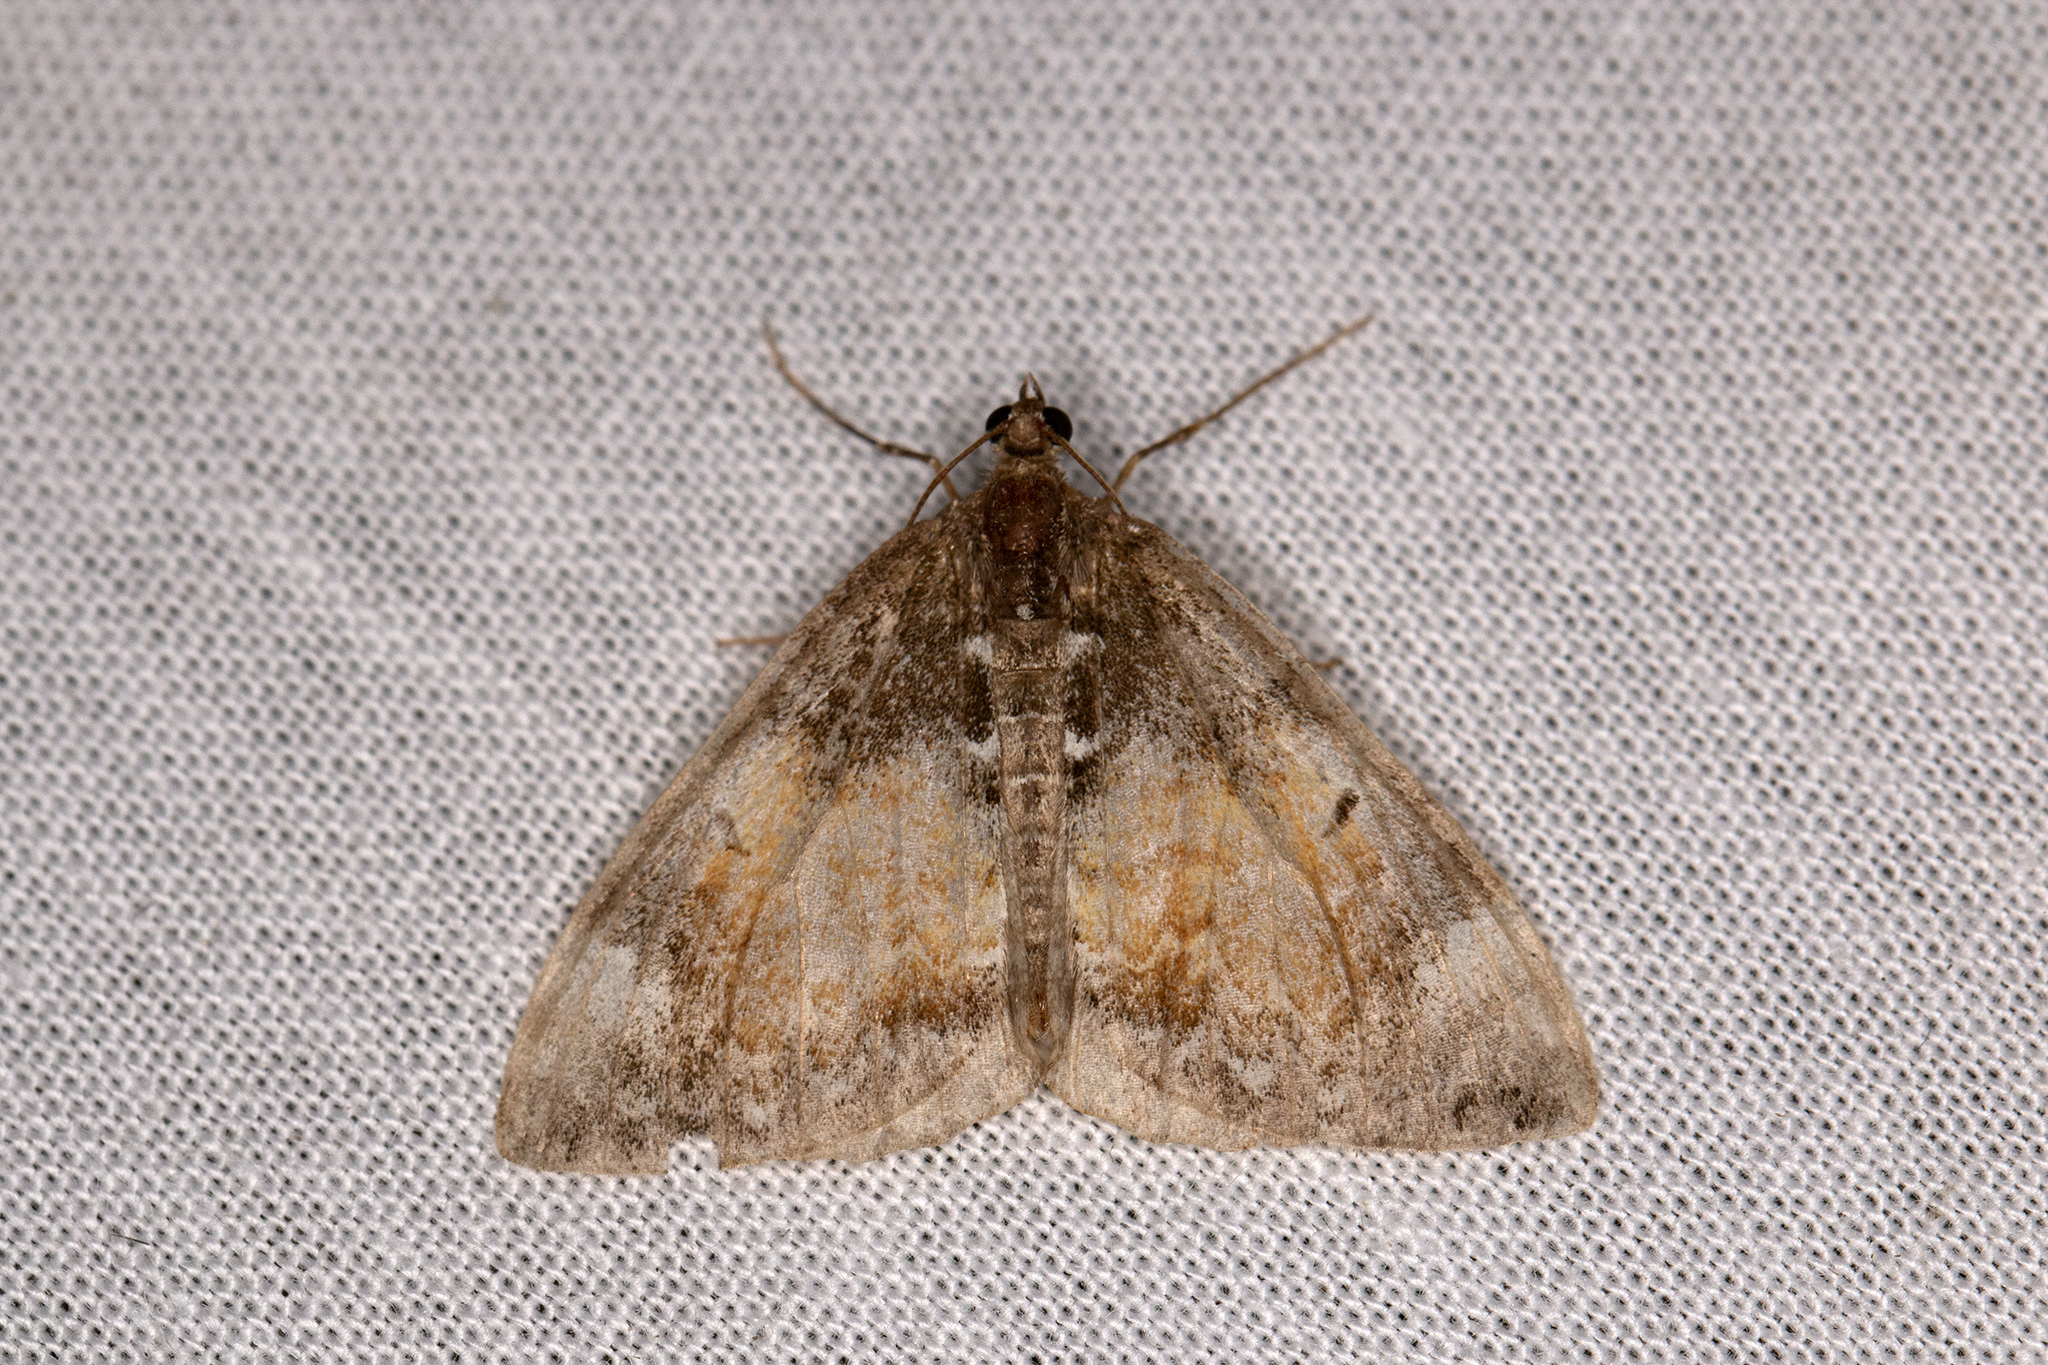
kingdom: Animalia
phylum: Arthropoda
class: Insecta
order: Lepidoptera
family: Geometridae
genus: Dysstroma
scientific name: Dysstroma truncata
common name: Common marbled carpet
